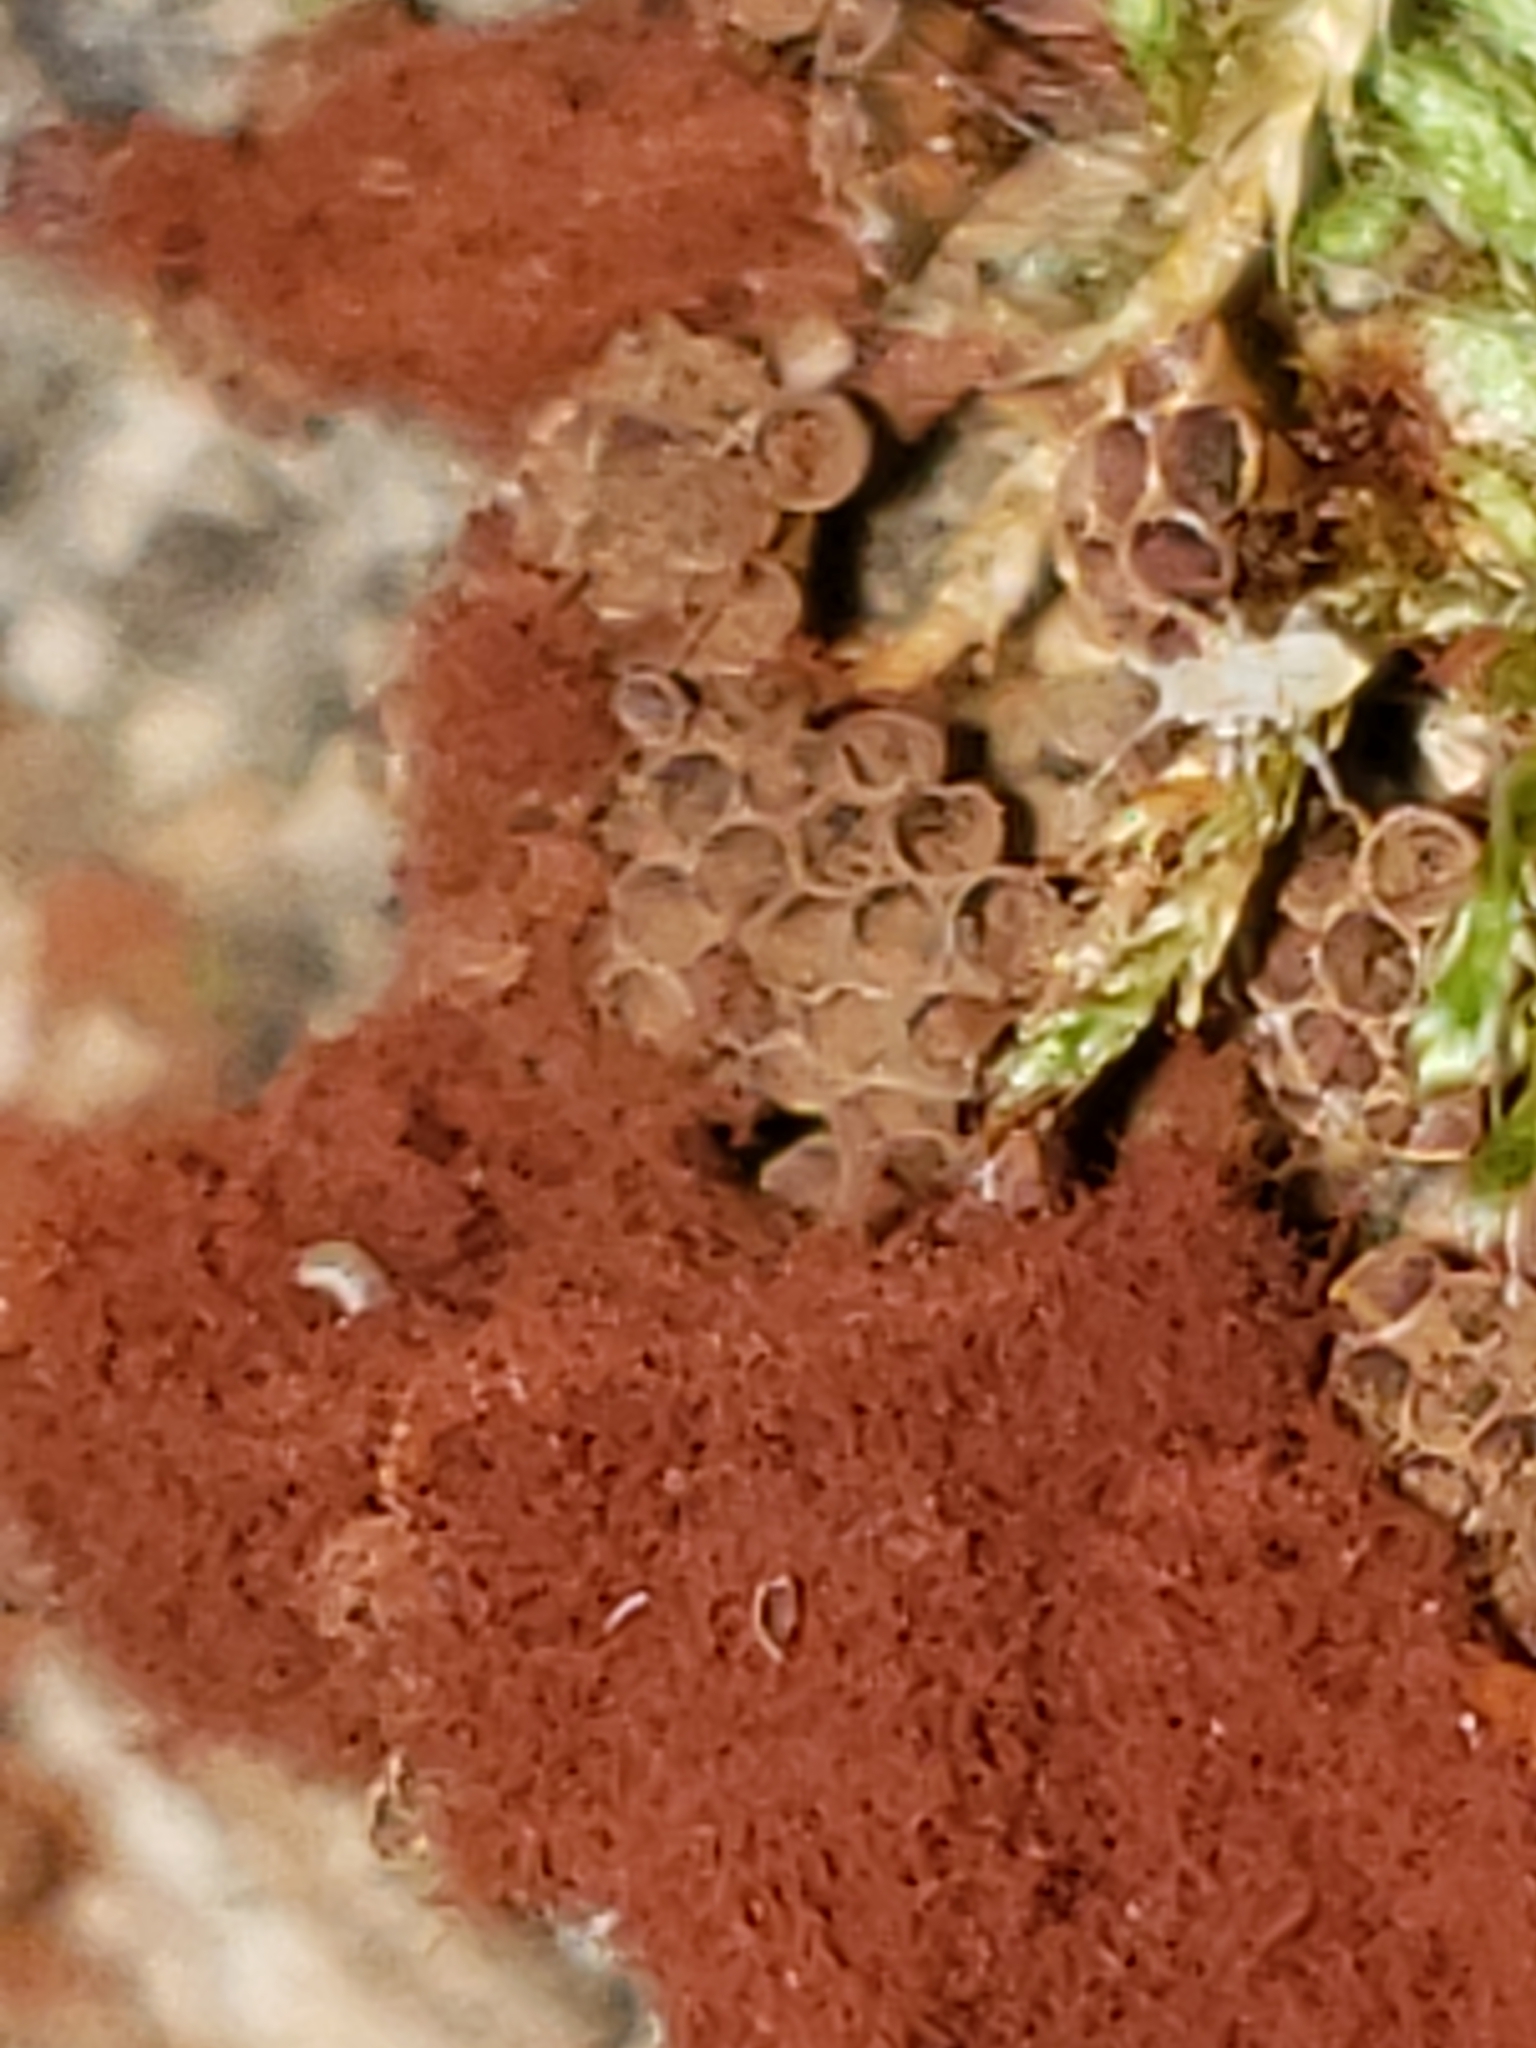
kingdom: Protozoa
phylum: Mycetozoa
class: Myxomycetes
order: Trichiales
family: Trichiaceae
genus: Metatrichia
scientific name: Metatrichia vesparia
